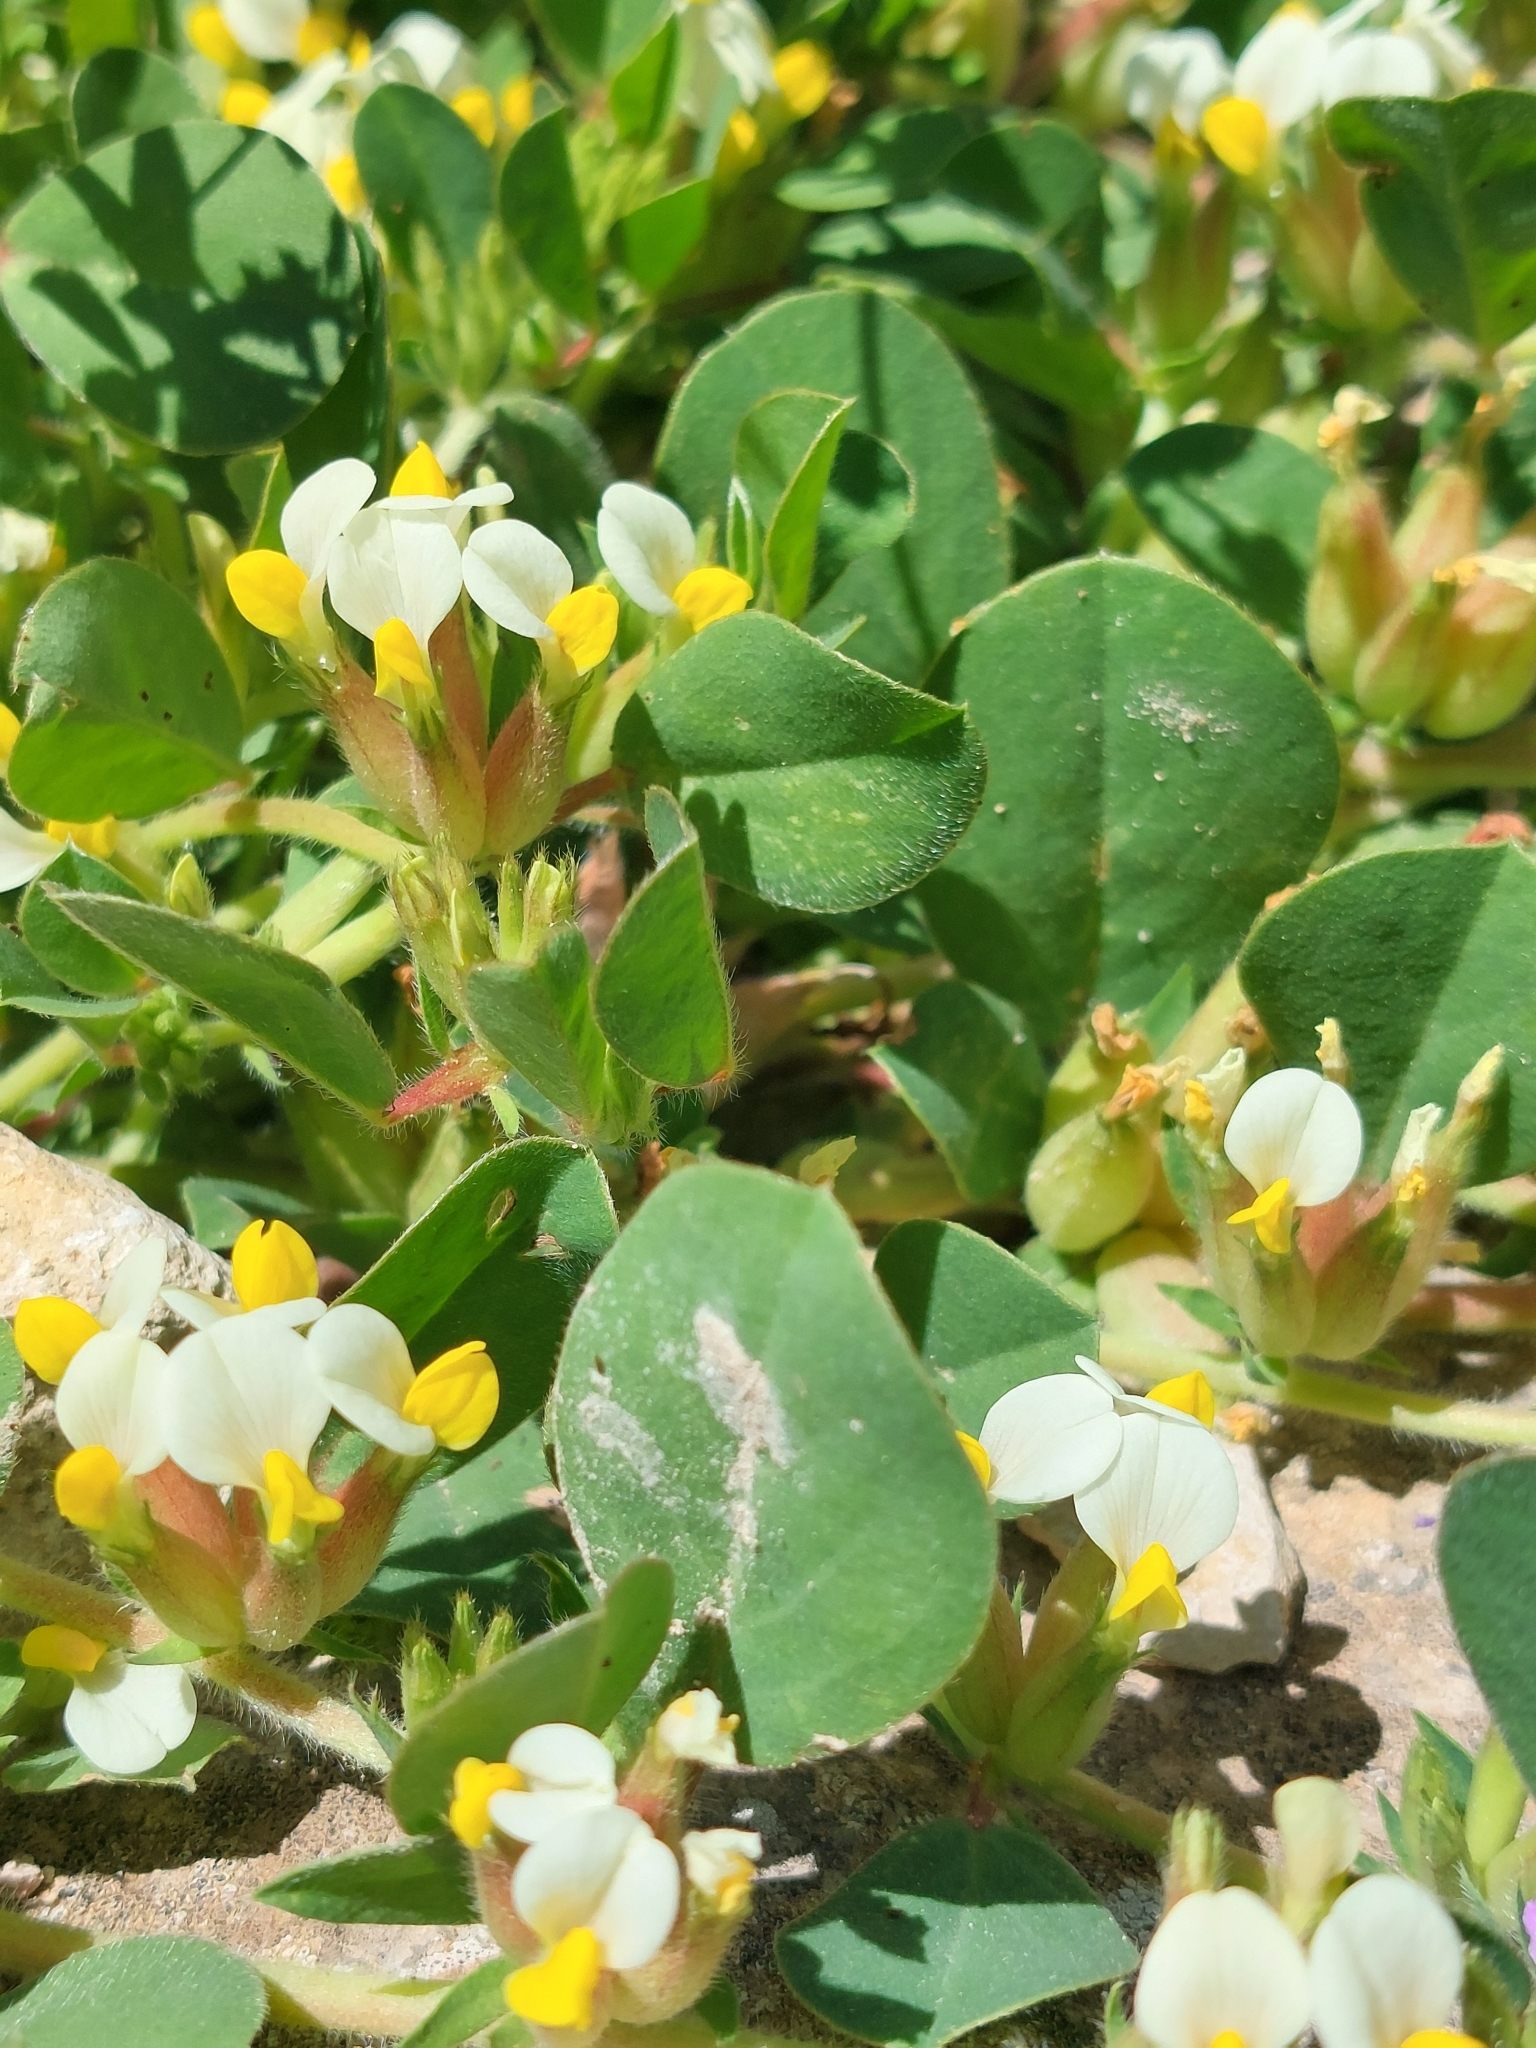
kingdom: Plantae
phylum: Tracheophyta
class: Magnoliopsida
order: Fabales
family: Fabaceae
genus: Tripodion
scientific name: Tripodion tetraphyllum
